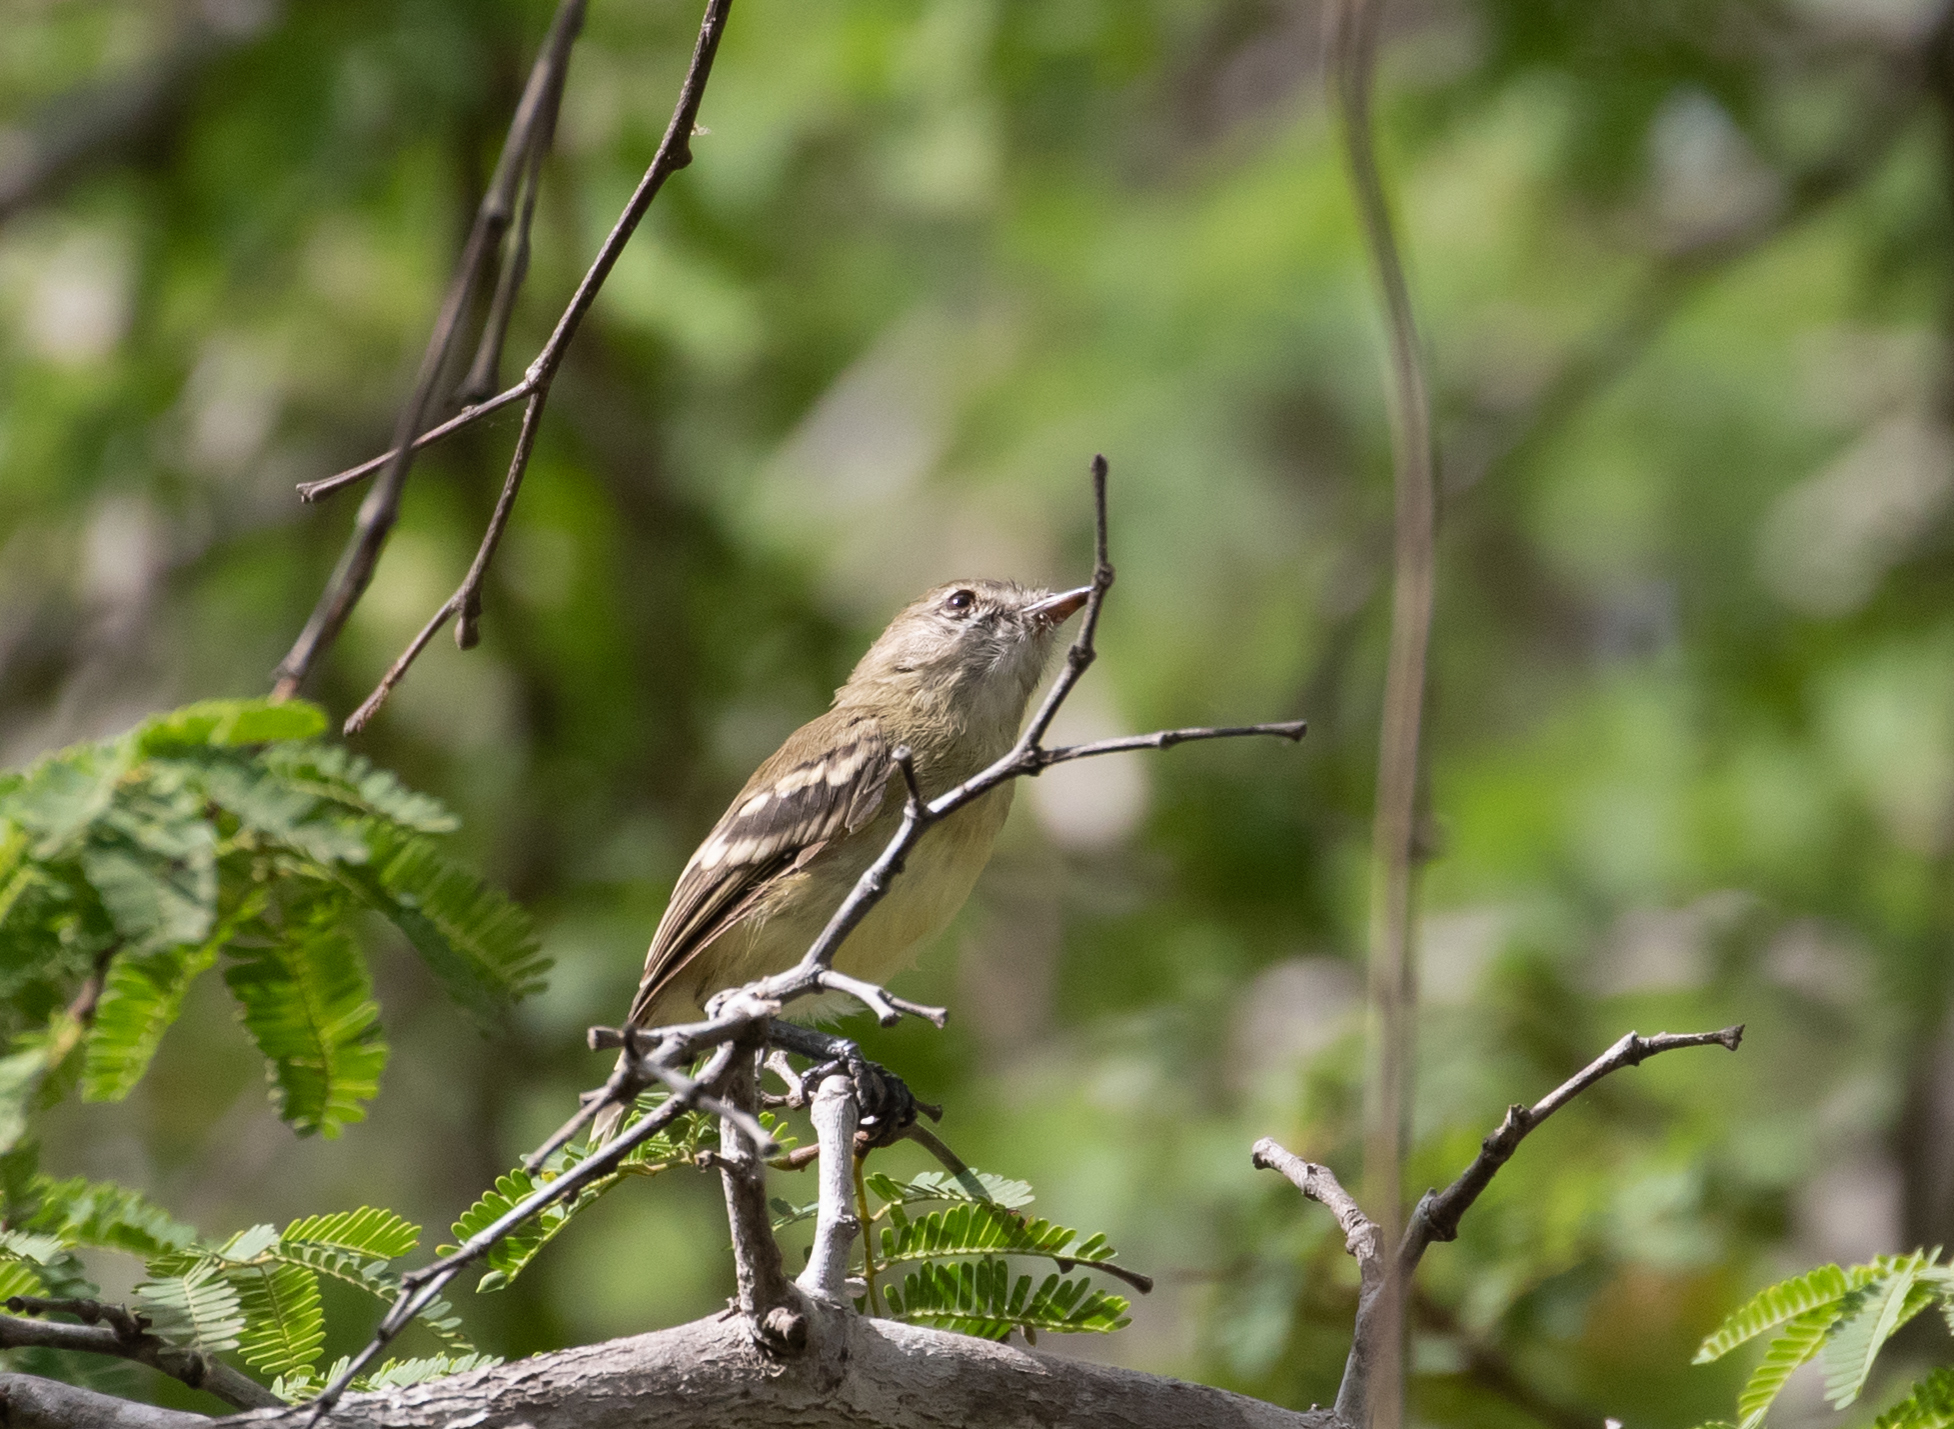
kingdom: Animalia
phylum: Chordata
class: Aves
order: Passeriformes
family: Tyrannidae
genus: Inezia
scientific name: Inezia tenuirostris
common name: Slender-billed inezia
